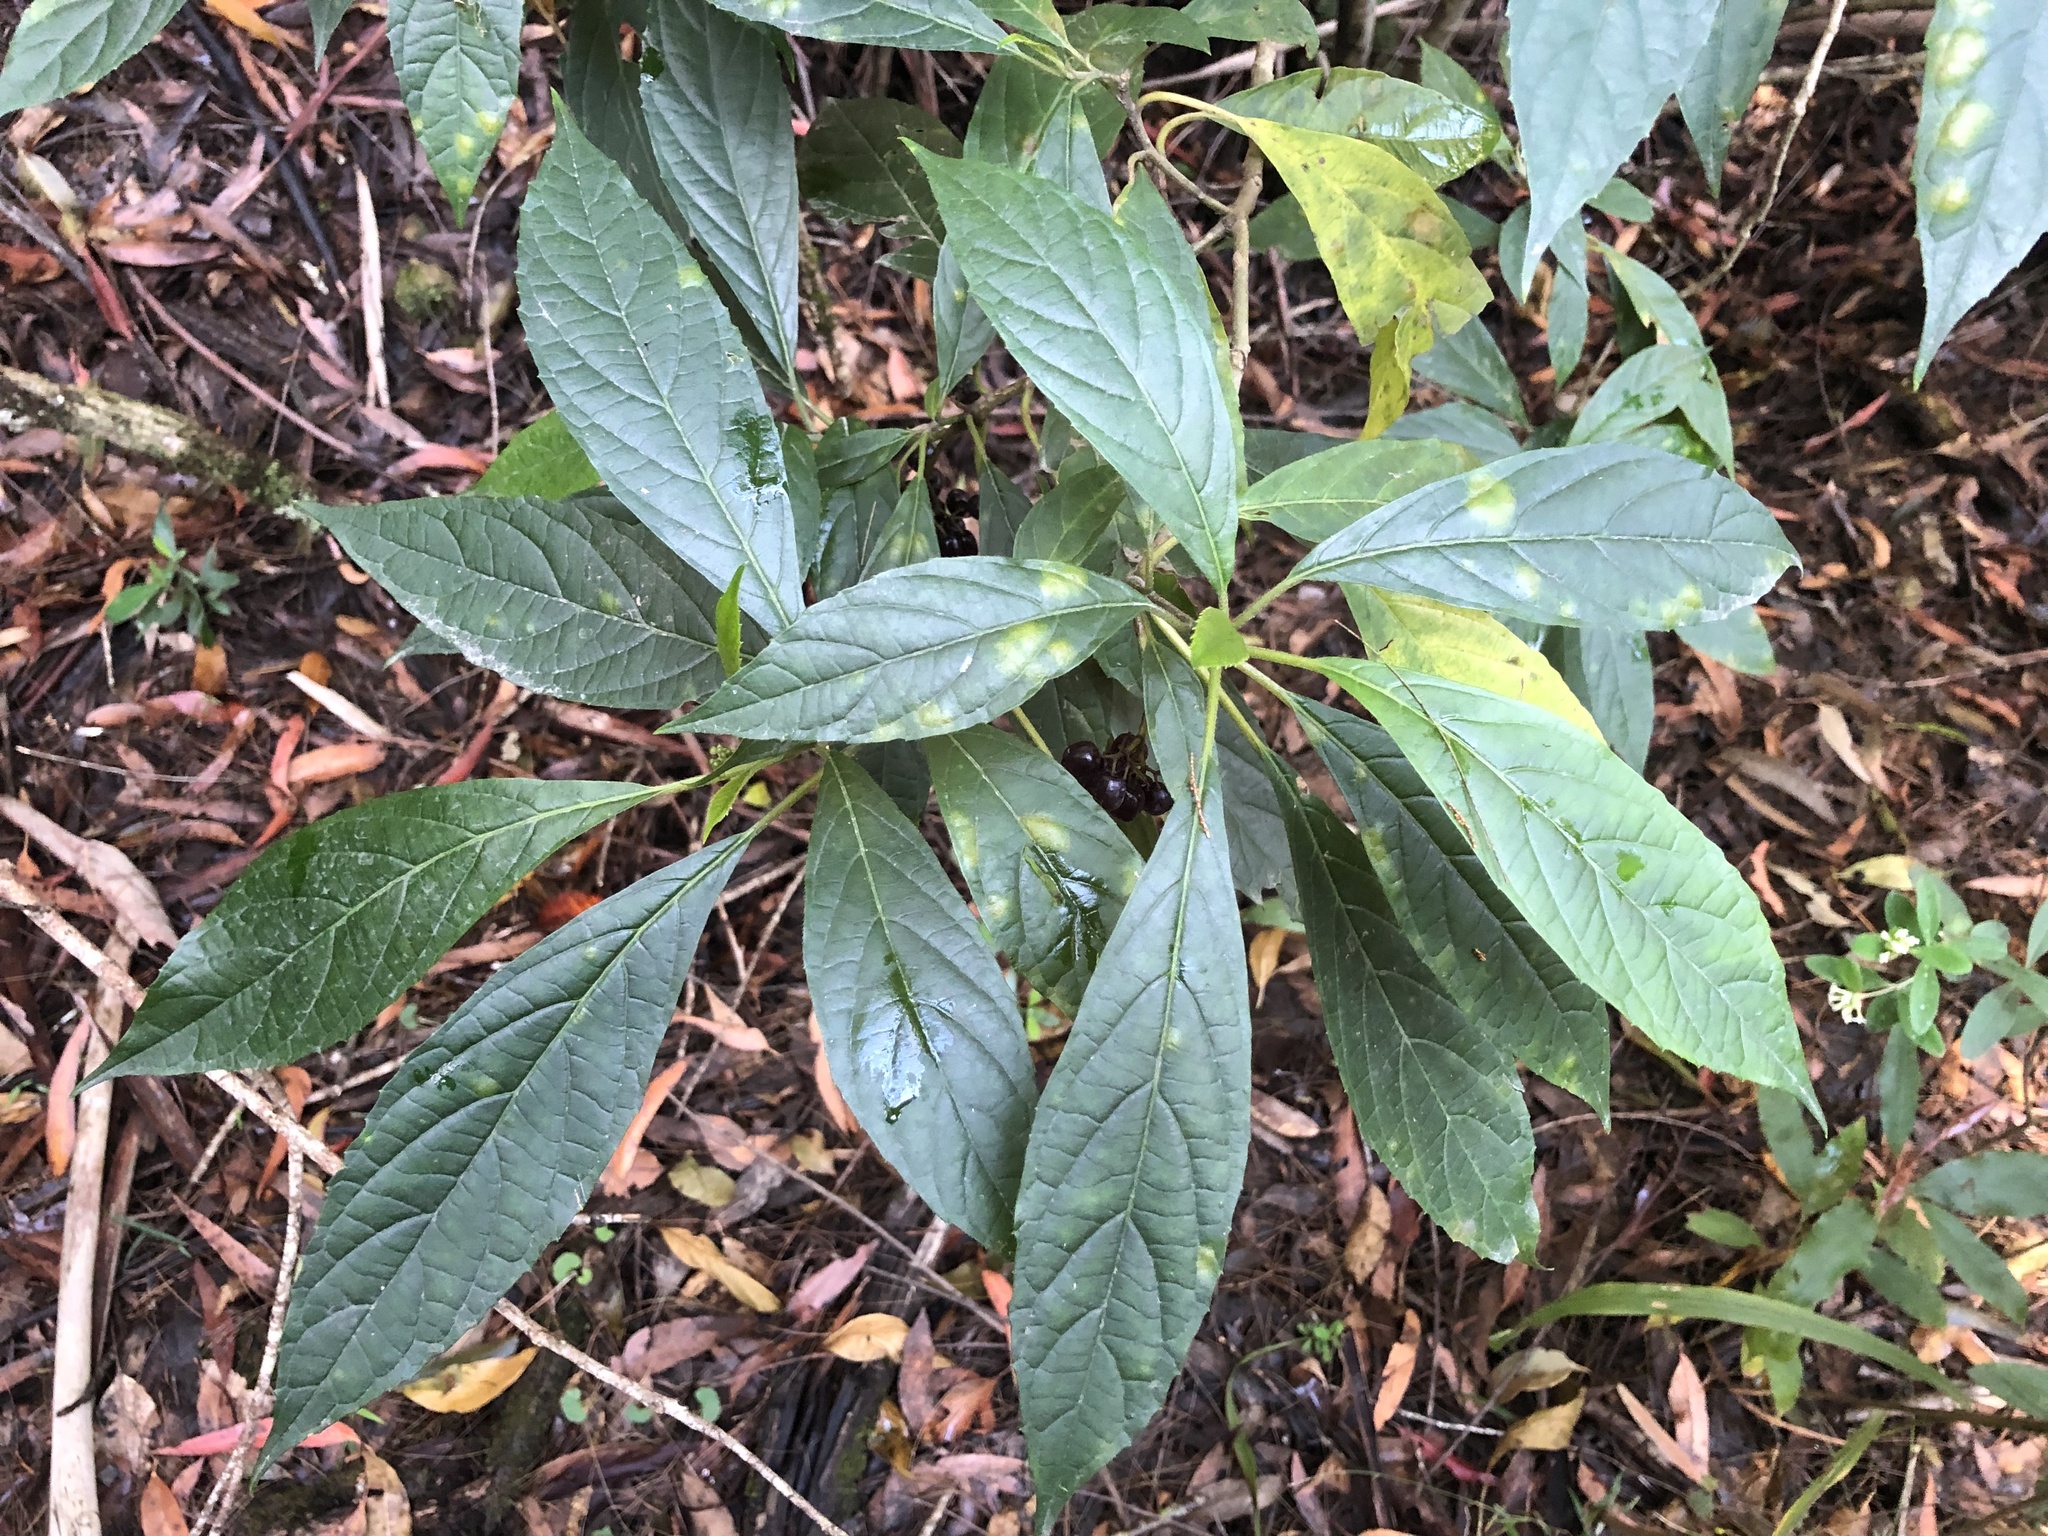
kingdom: Plantae
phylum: Tracheophyta
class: Magnoliopsida
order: Asterales
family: Rousseaceae
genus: Abrophyllum
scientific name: Abrophyllum ornans
